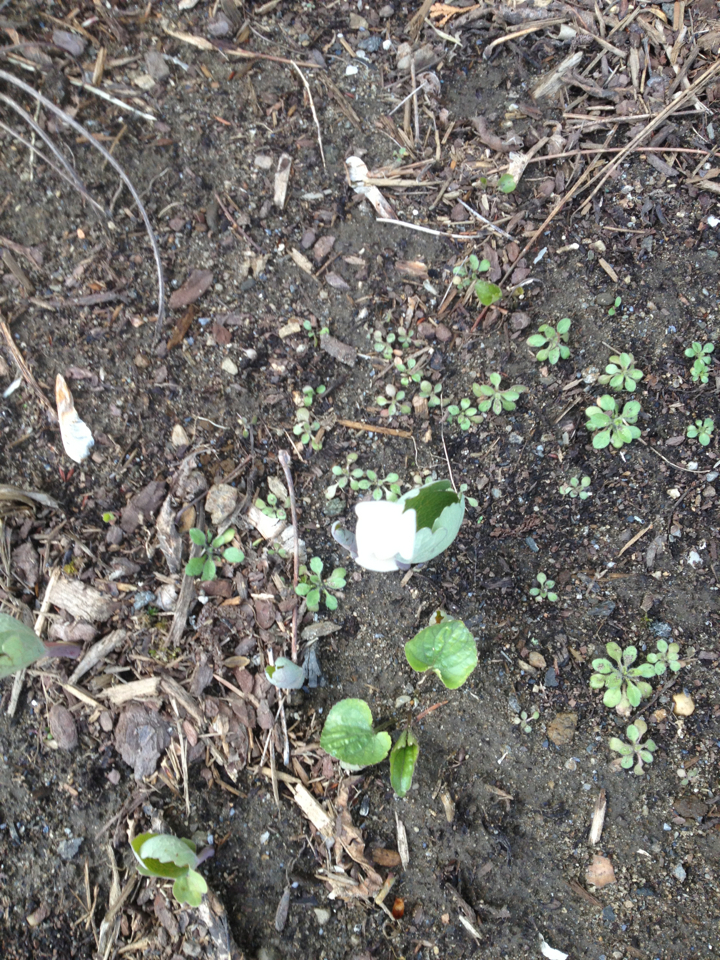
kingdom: Plantae
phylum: Tracheophyta
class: Magnoliopsida
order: Ranunculales
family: Papaveraceae
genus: Sanguinaria
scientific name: Sanguinaria canadensis
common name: Bloodroot
